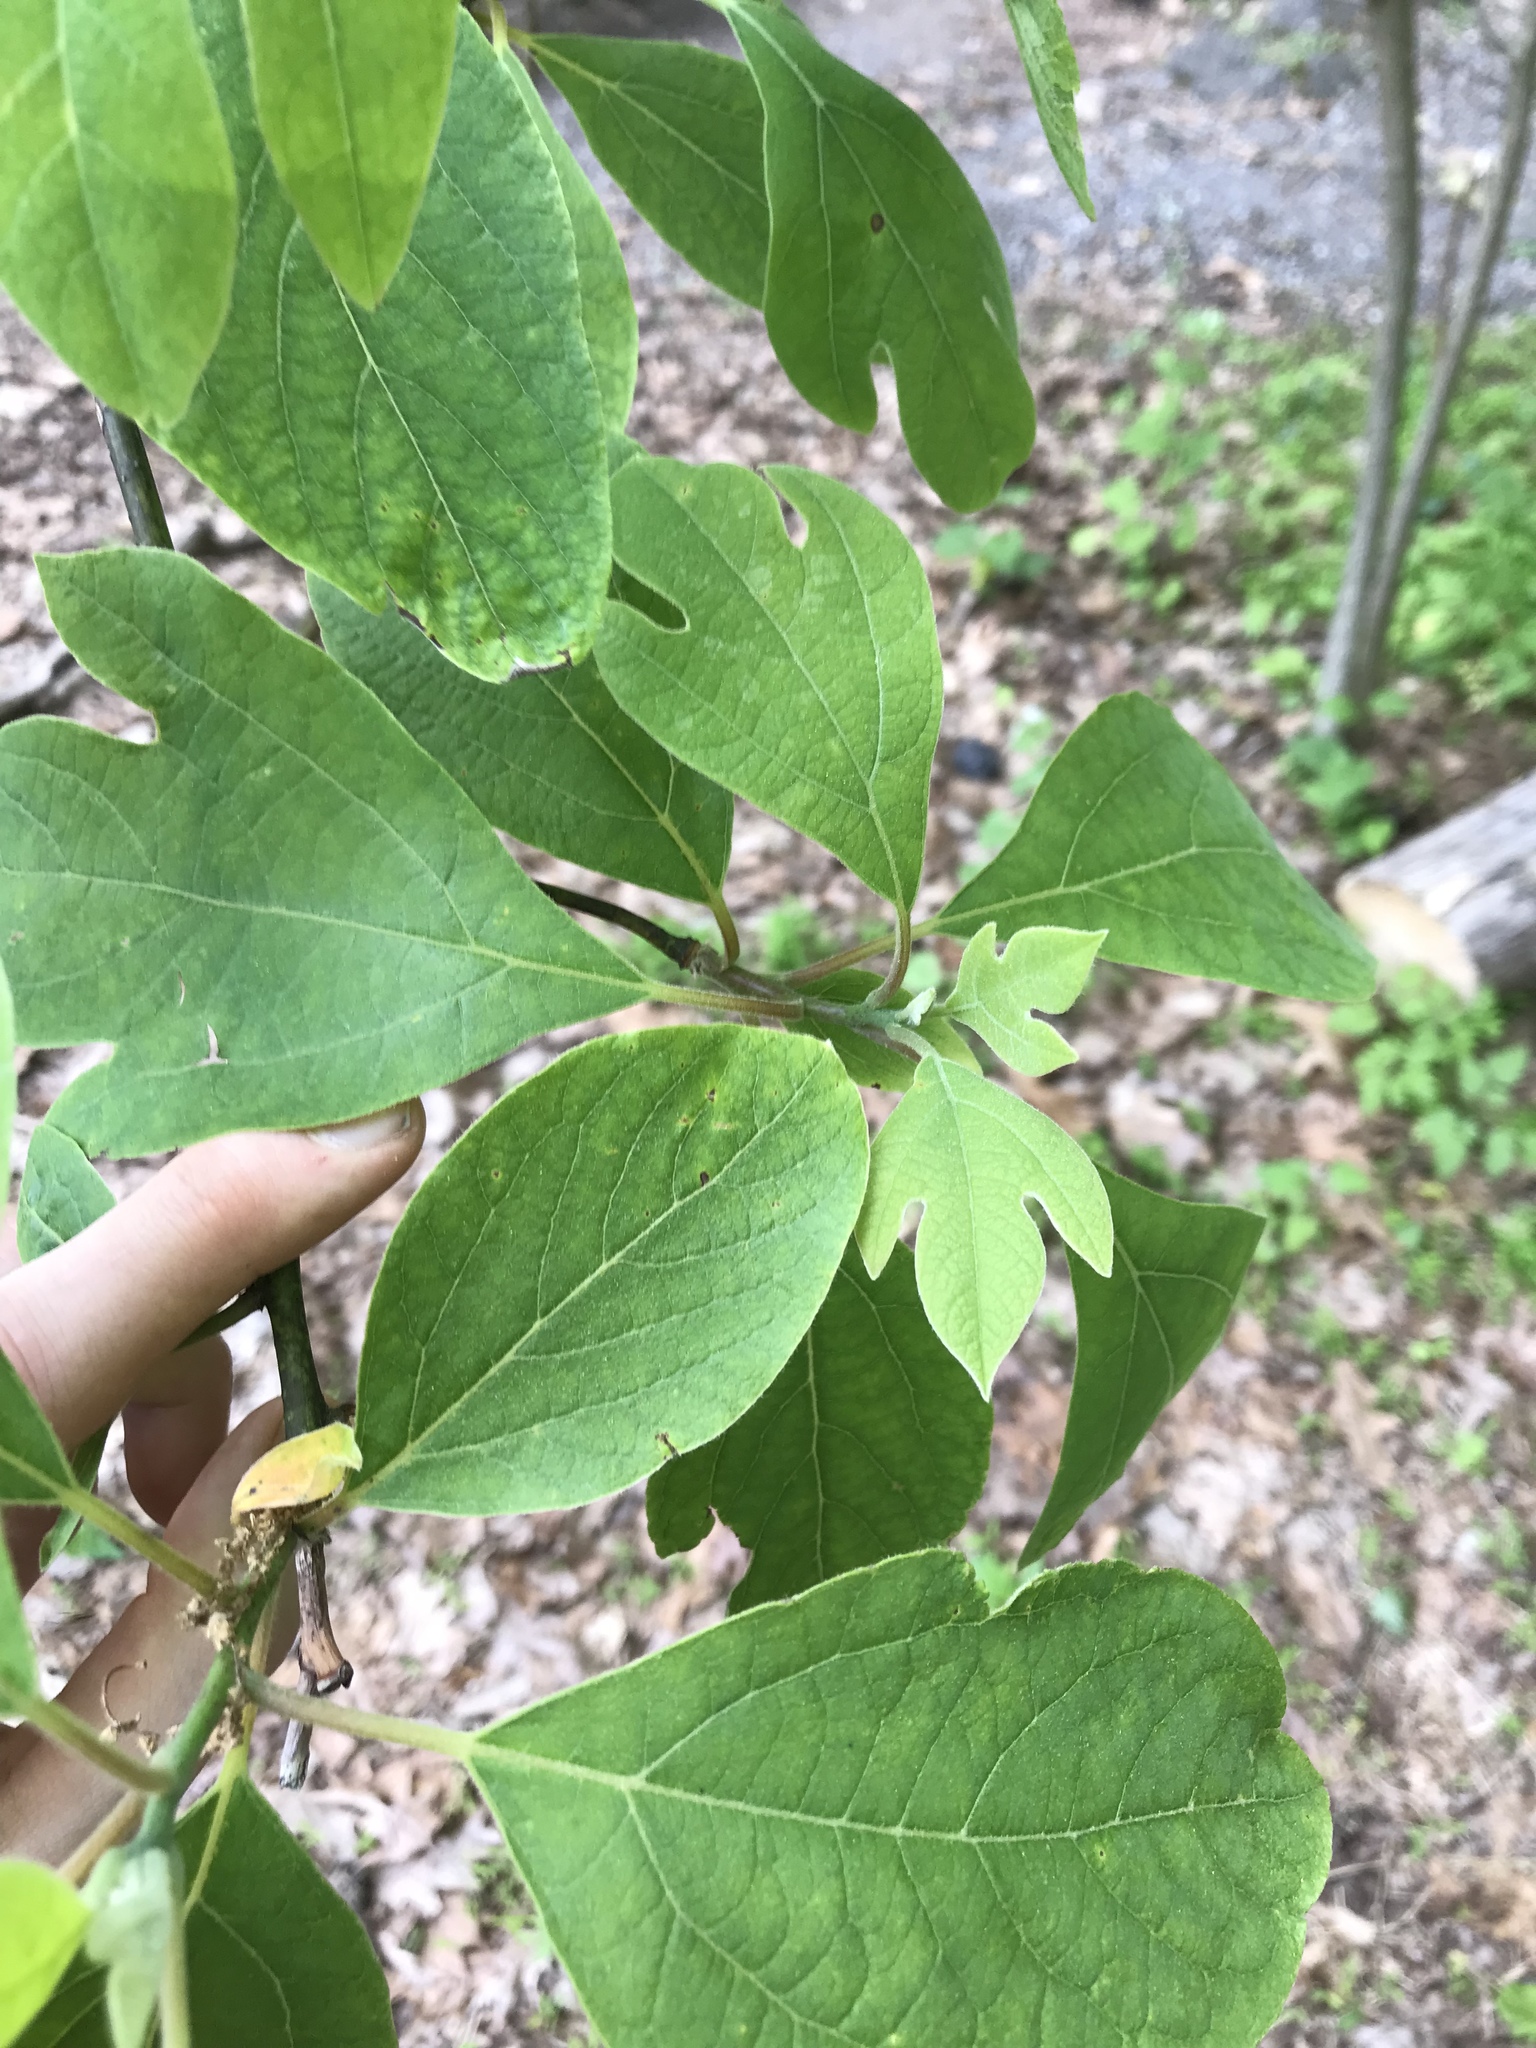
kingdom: Plantae
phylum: Tracheophyta
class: Magnoliopsida
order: Laurales
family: Lauraceae
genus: Sassafras
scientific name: Sassafras albidum
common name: Sassafras
